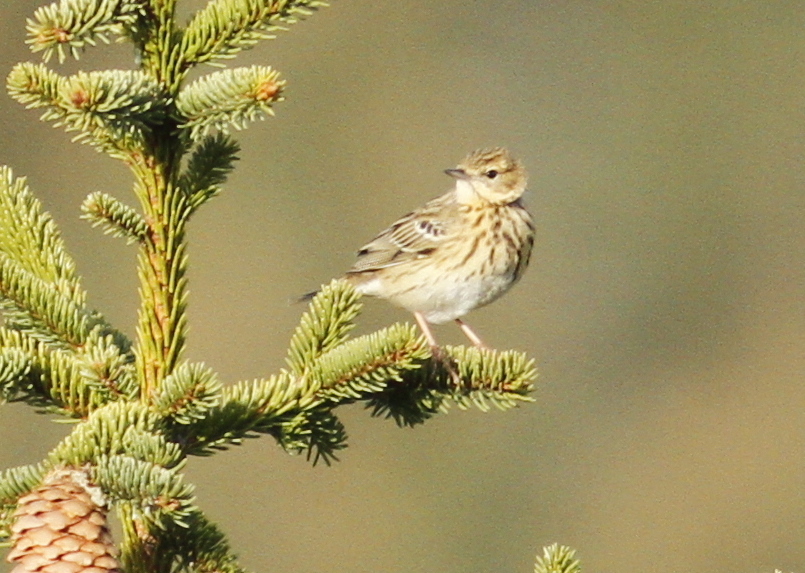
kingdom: Animalia
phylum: Chordata
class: Aves
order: Passeriformes
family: Motacillidae
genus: Anthus
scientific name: Anthus trivialis
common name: Tree pipit
